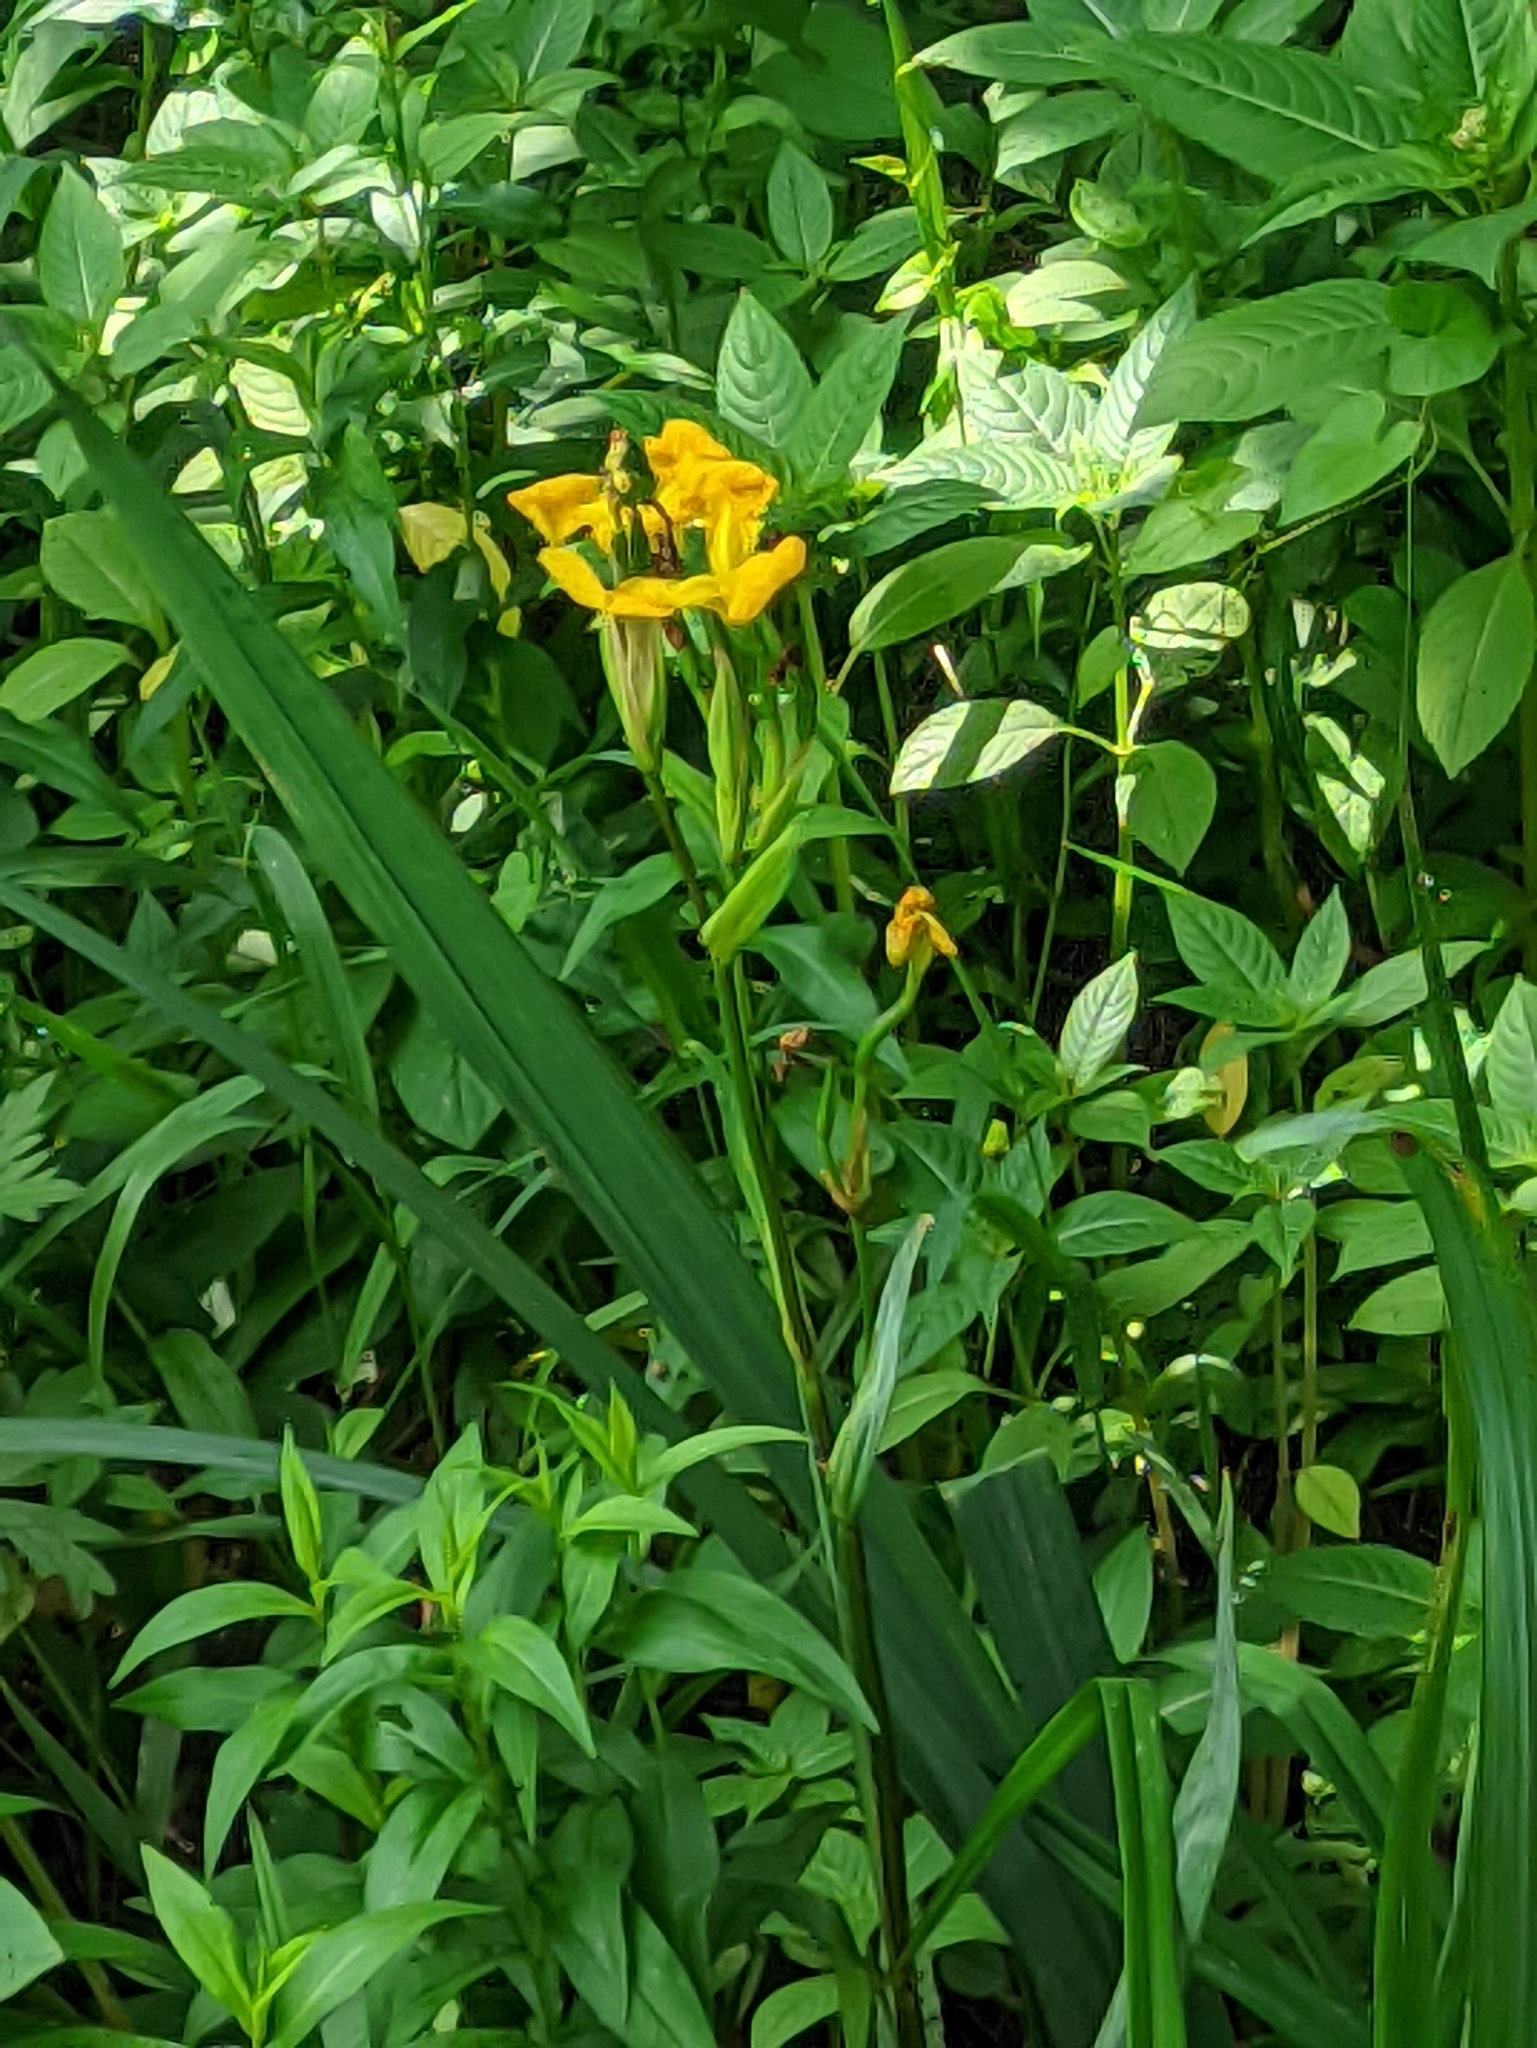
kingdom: Plantae
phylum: Tracheophyta
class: Liliopsida
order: Asparagales
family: Iridaceae
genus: Iris
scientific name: Iris pseudacorus
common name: Yellow flag
